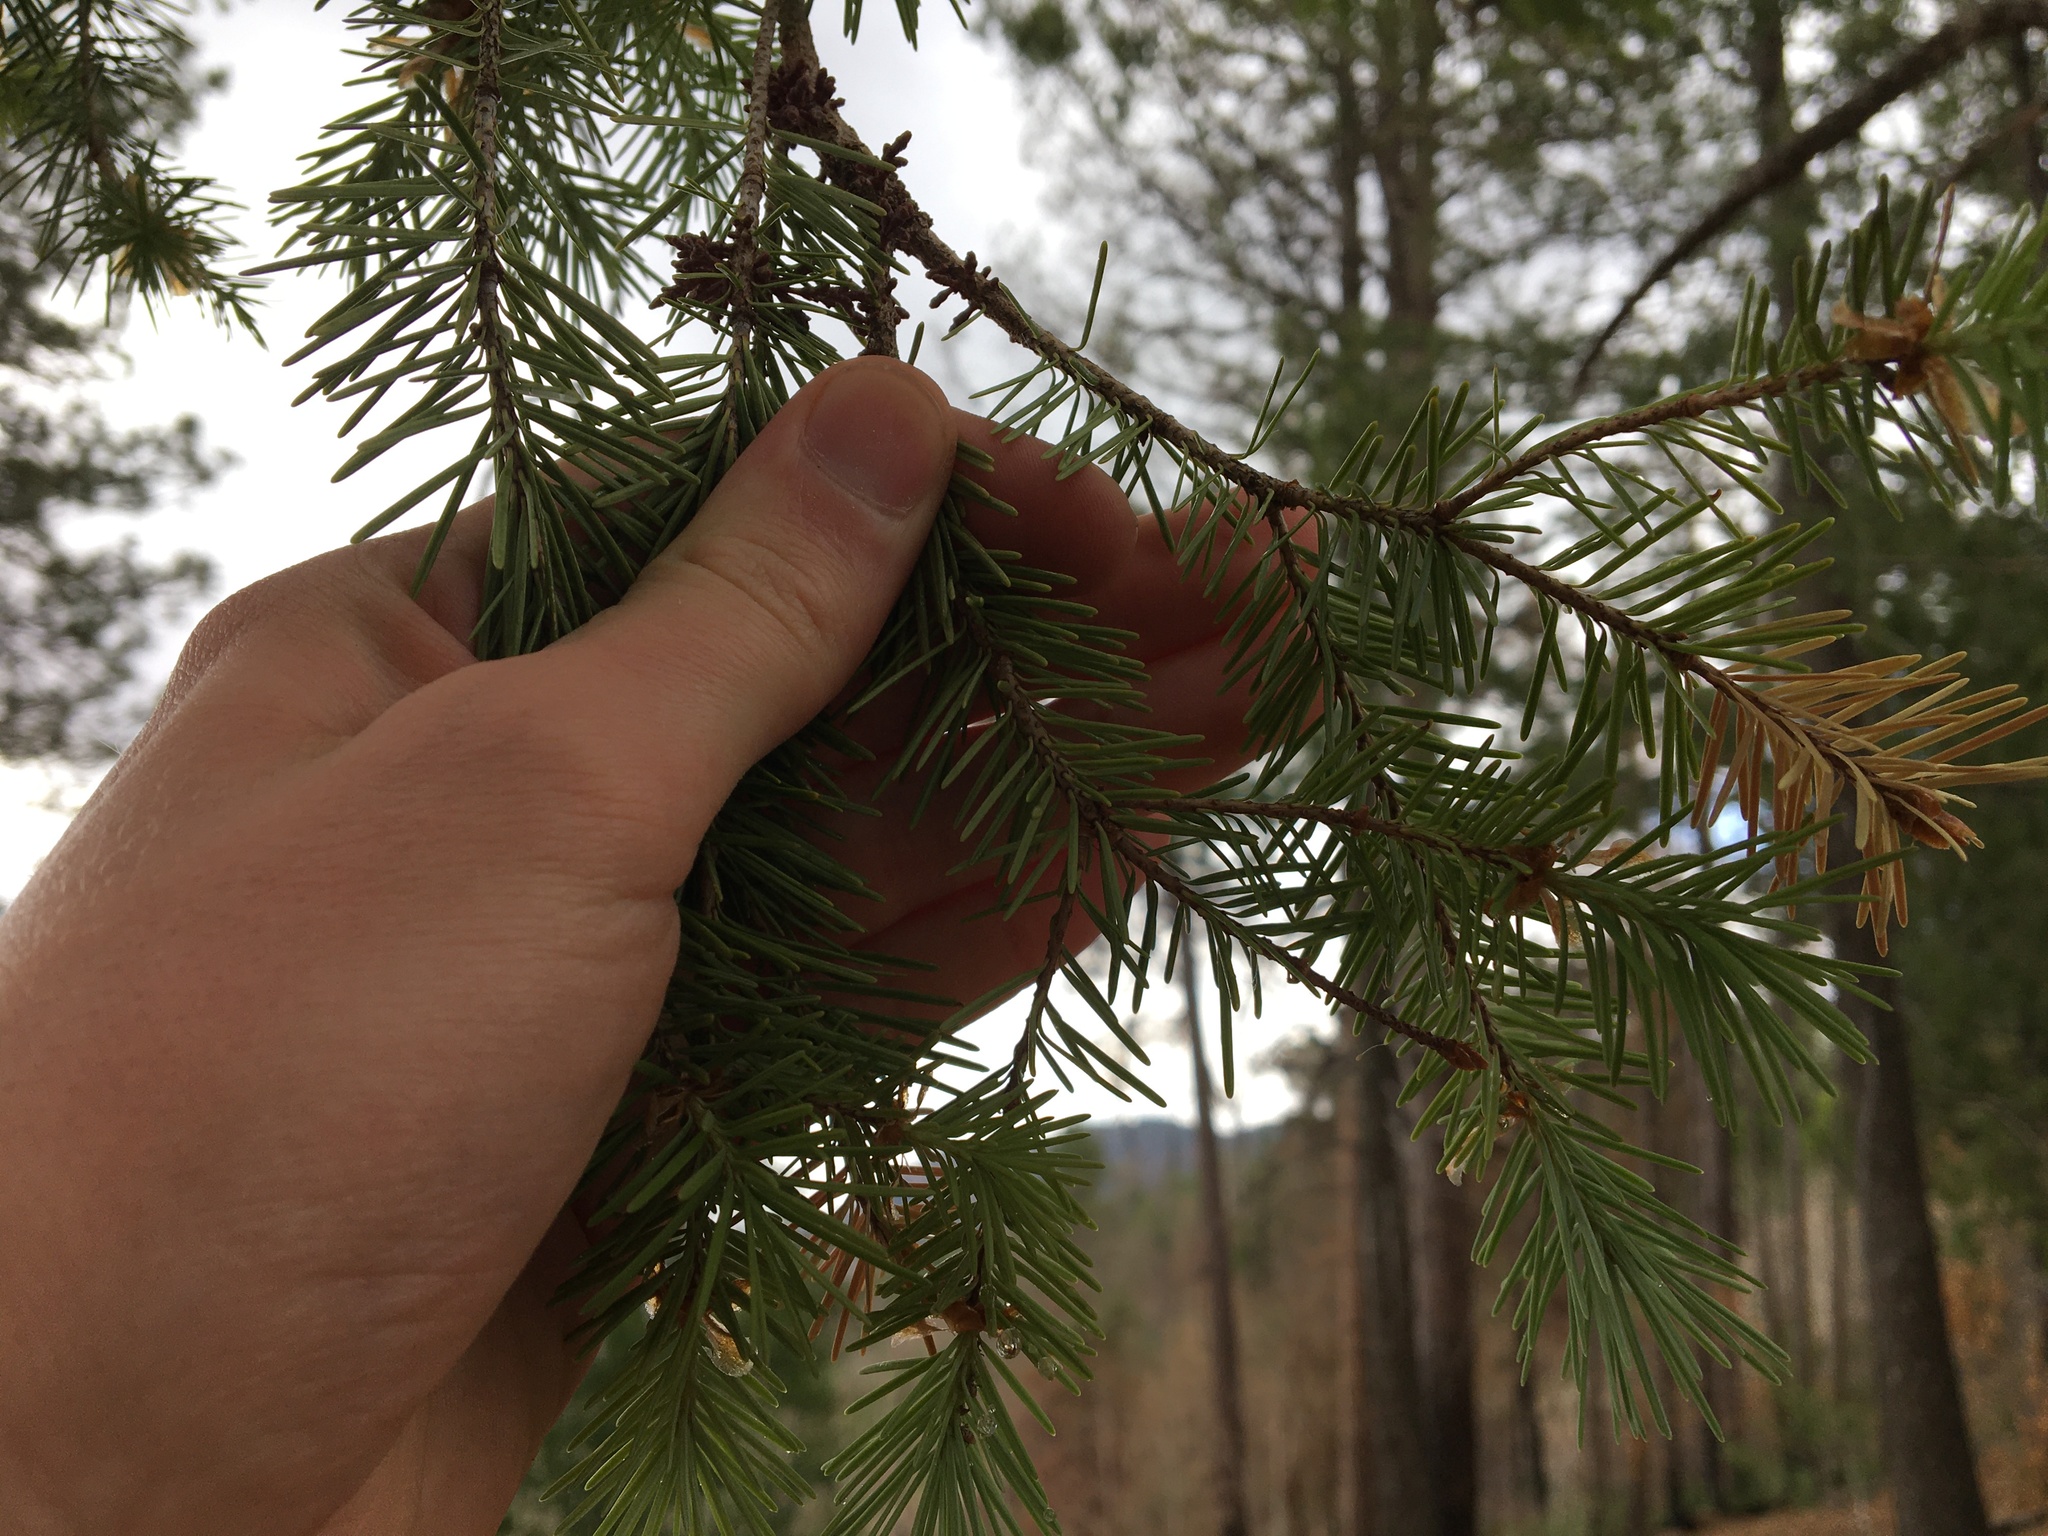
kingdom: Plantae
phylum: Tracheophyta
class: Pinopsida
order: Pinales
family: Pinaceae
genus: Pseudotsuga
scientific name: Pseudotsuga menziesii
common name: Douglas fir
